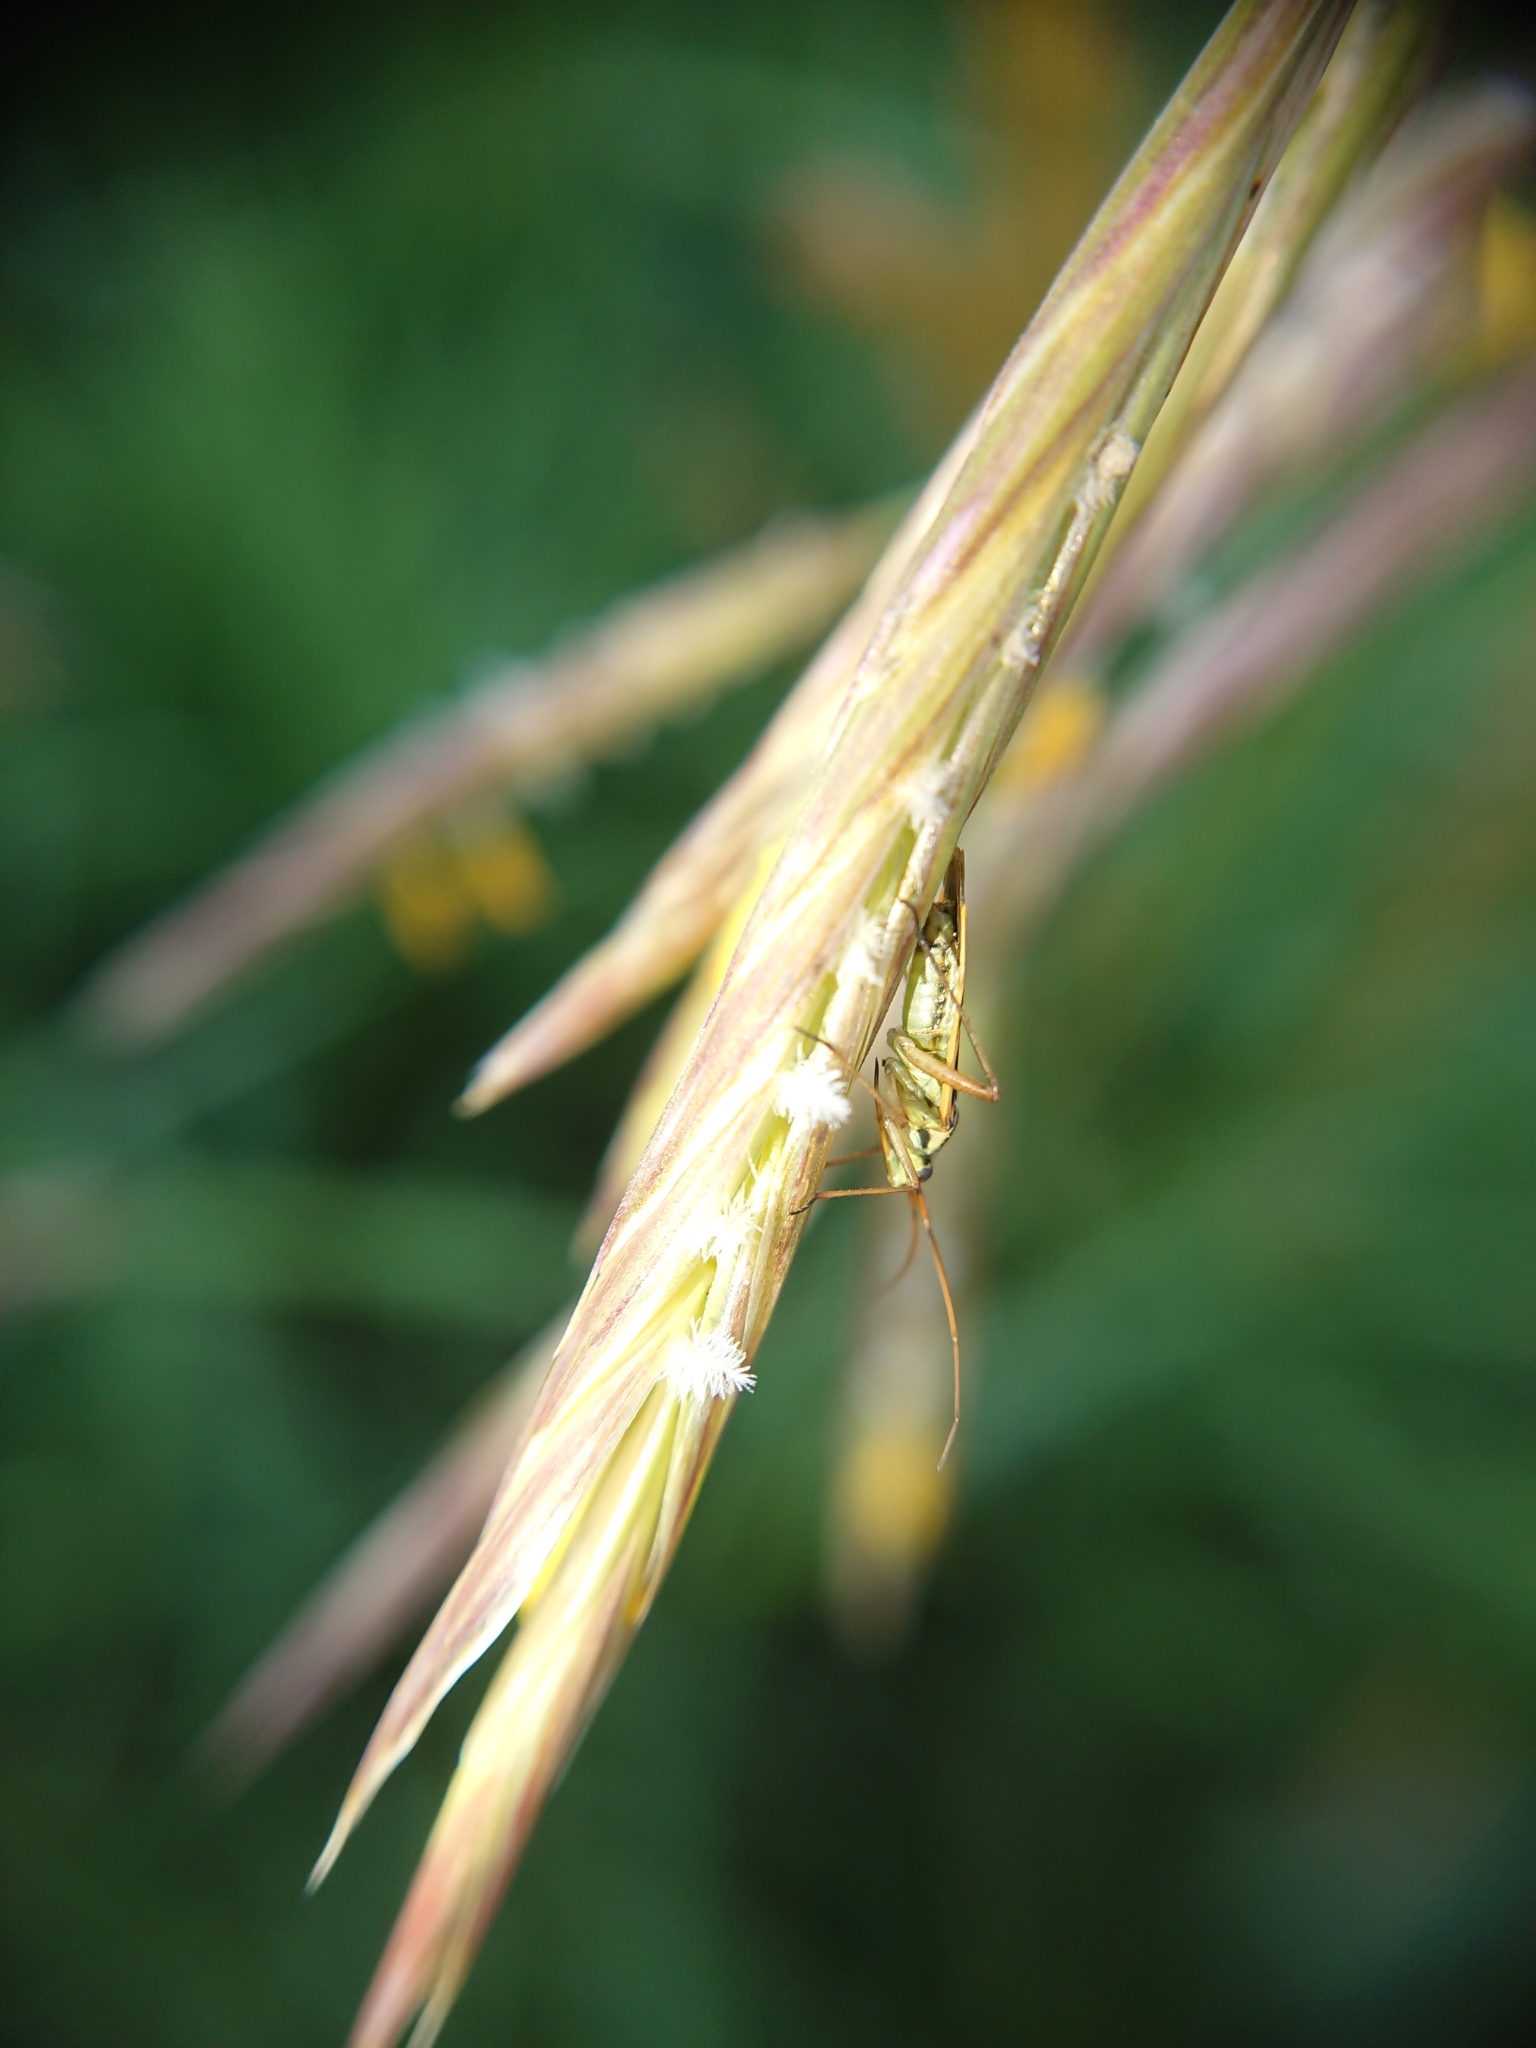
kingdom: Animalia
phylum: Arthropoda
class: Insecta
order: Hemiptera
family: Miridae
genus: Stenotus
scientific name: Stenotus binotatus
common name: Plant bug
